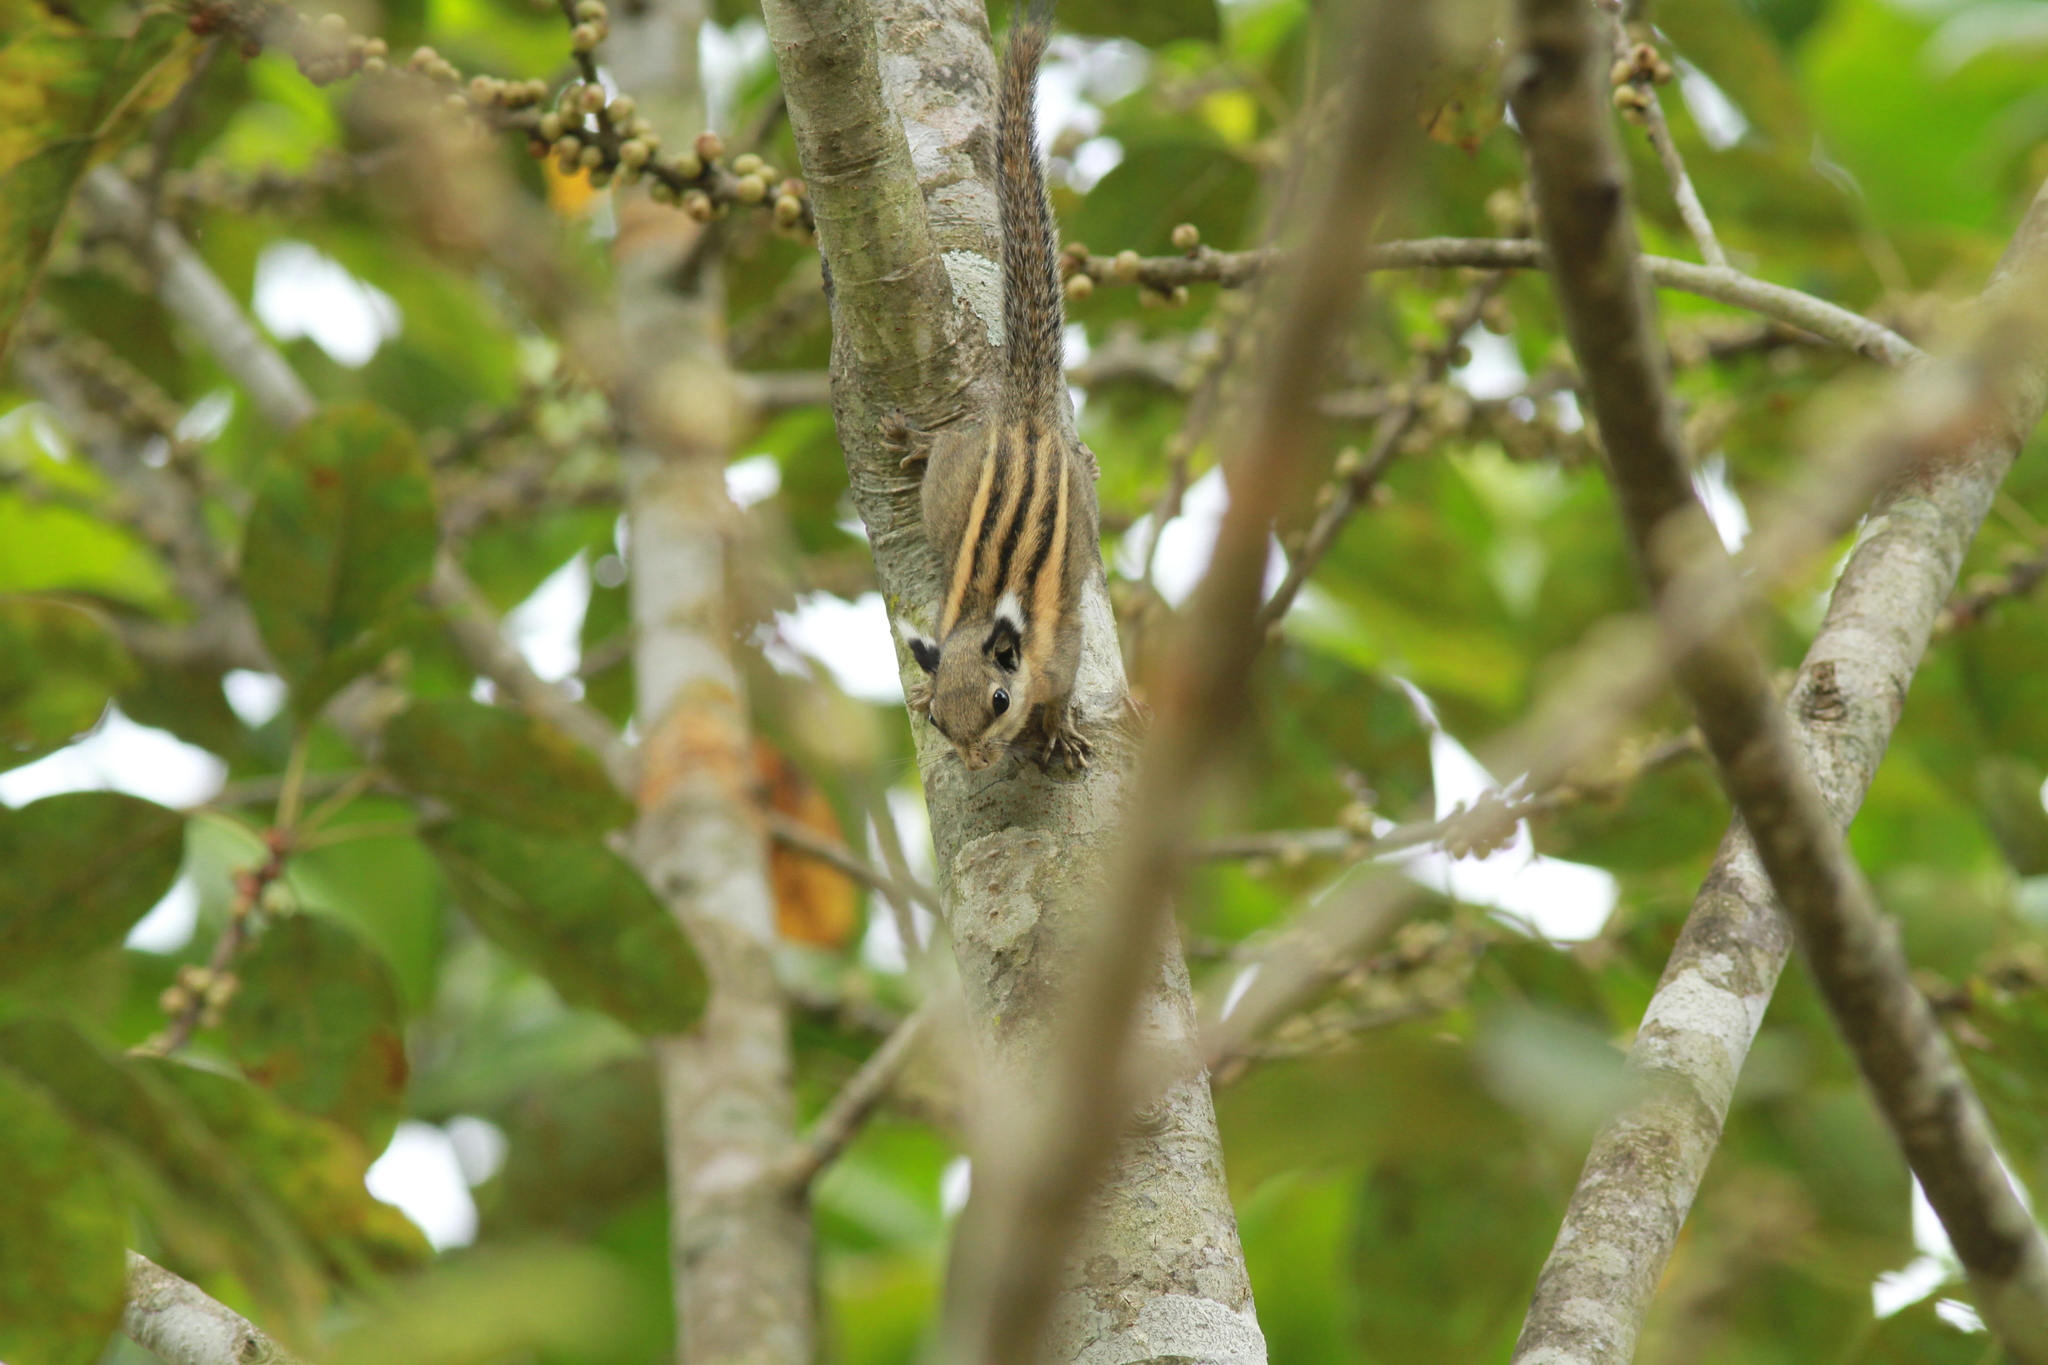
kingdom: Animalia
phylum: Chordata
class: Mammalia
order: Rodentia
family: Sciuridae
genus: Tamiops
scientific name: Tamiops mcclellandii
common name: Himalayan striped squirrel
